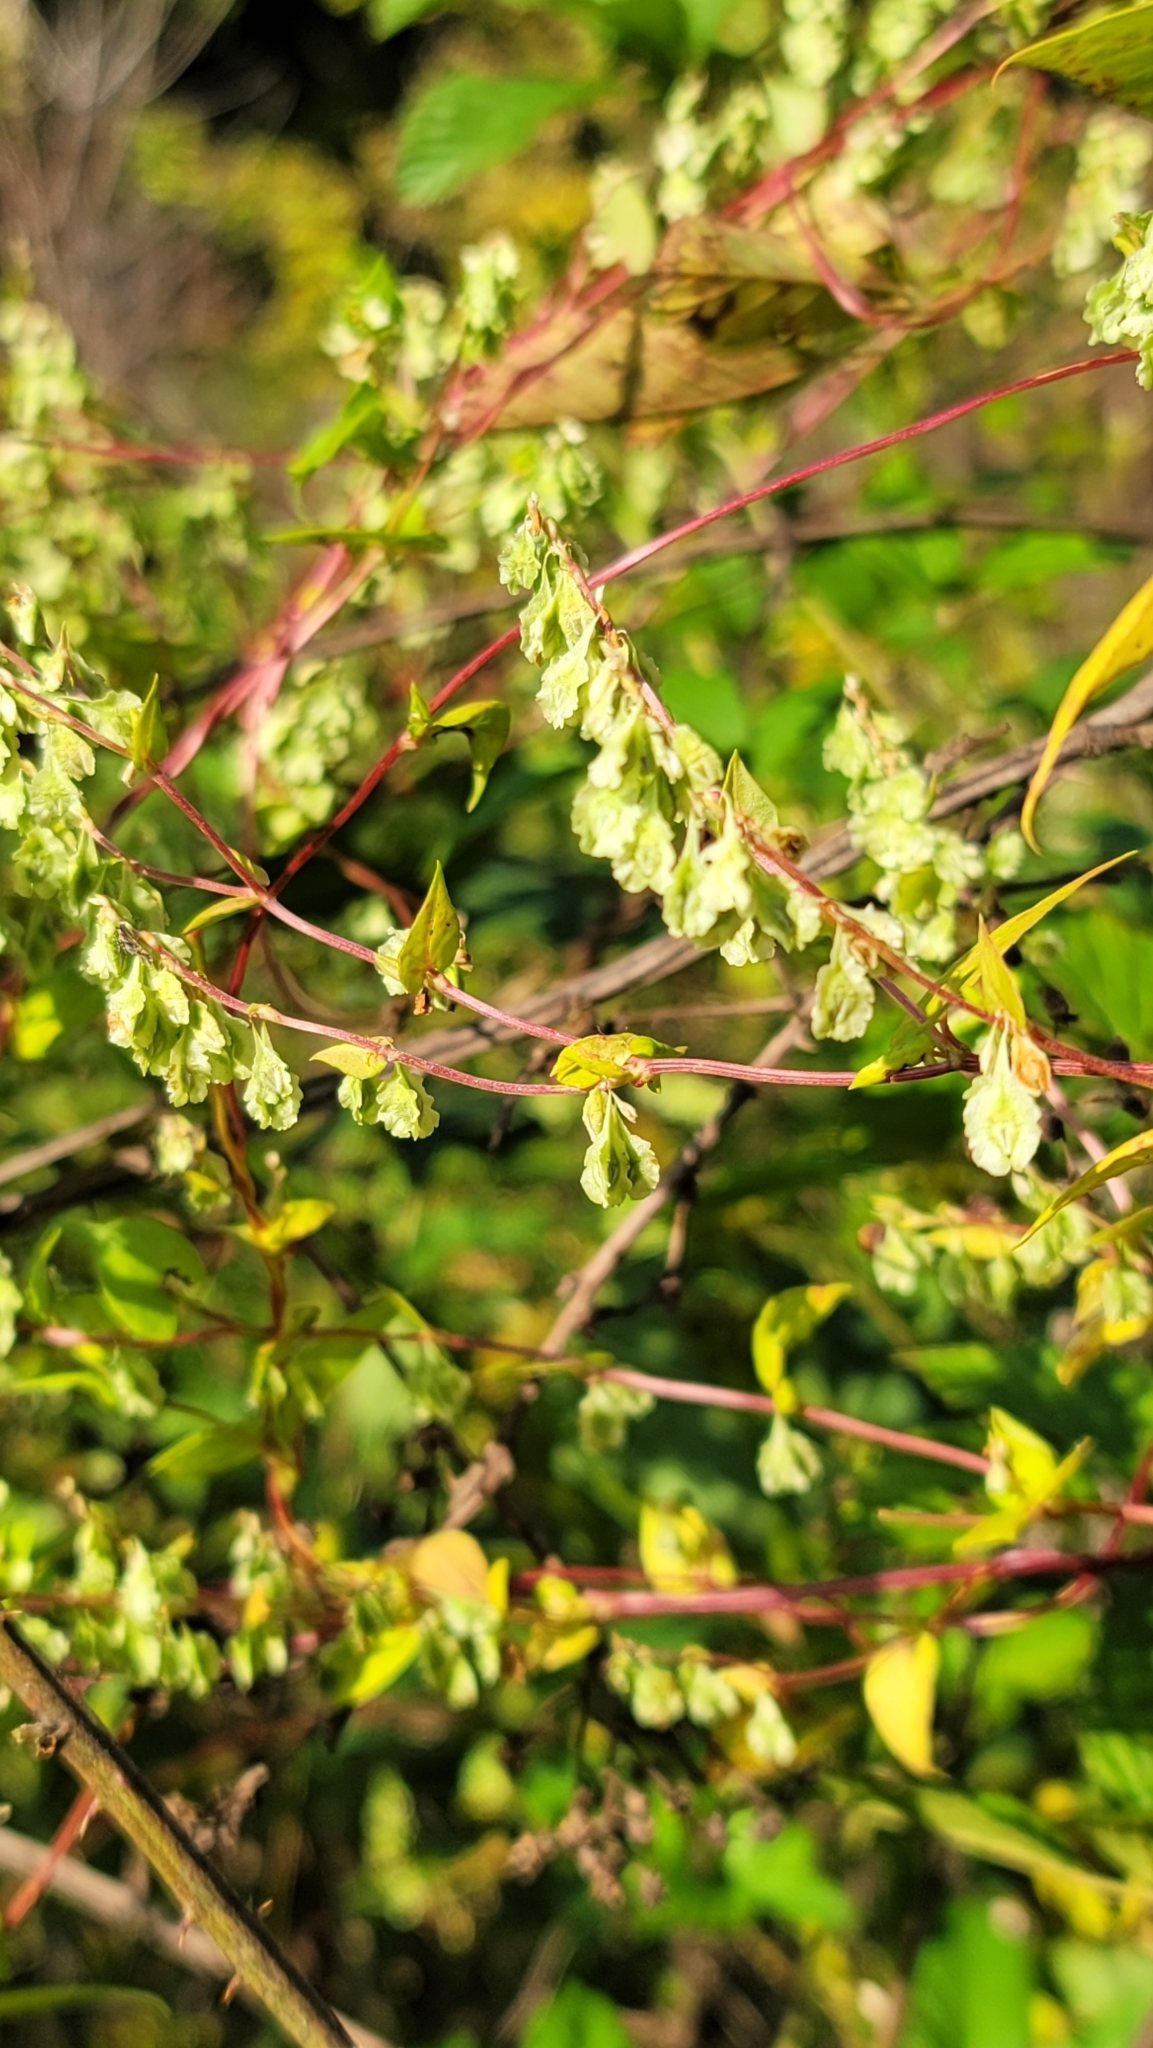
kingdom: Plantae
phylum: Tracheophyta
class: Magnoliopsida
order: Caryophyllales
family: Polygonaceae
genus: Fallopia
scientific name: Fallopia scandens
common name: Climbing false buckwheat
